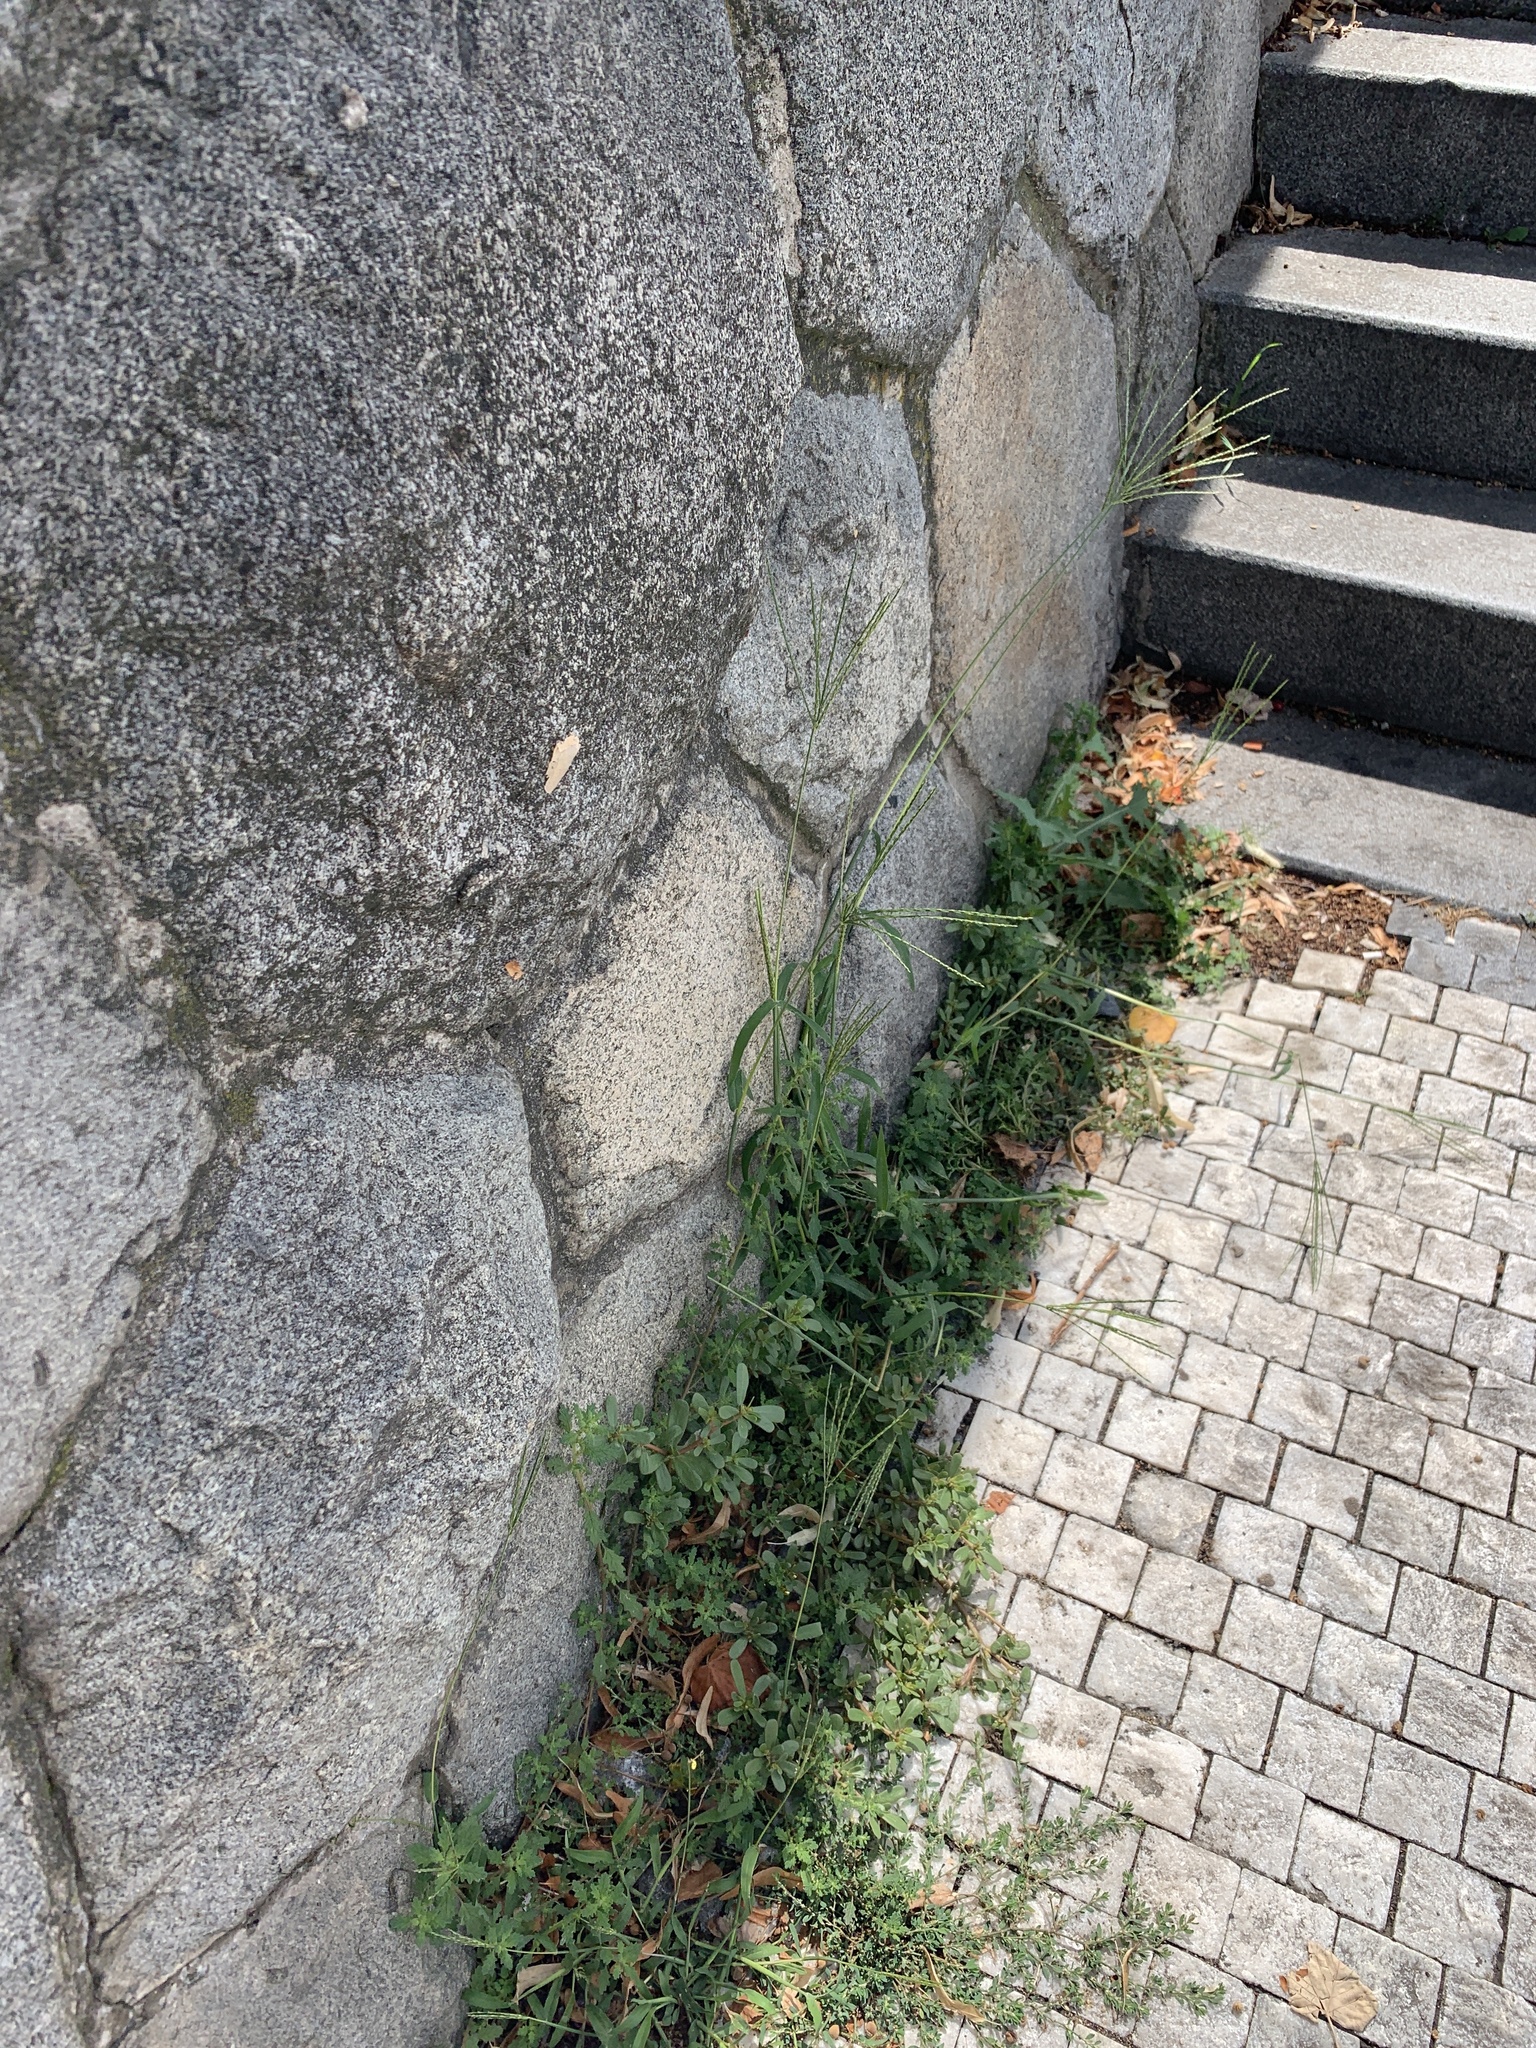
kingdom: Plantae
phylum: Tracheophyta
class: Liliopsida
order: Poales
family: Poaceae
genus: Digitaria
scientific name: Digitaria sanguinalis
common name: Hairy crabgrass
